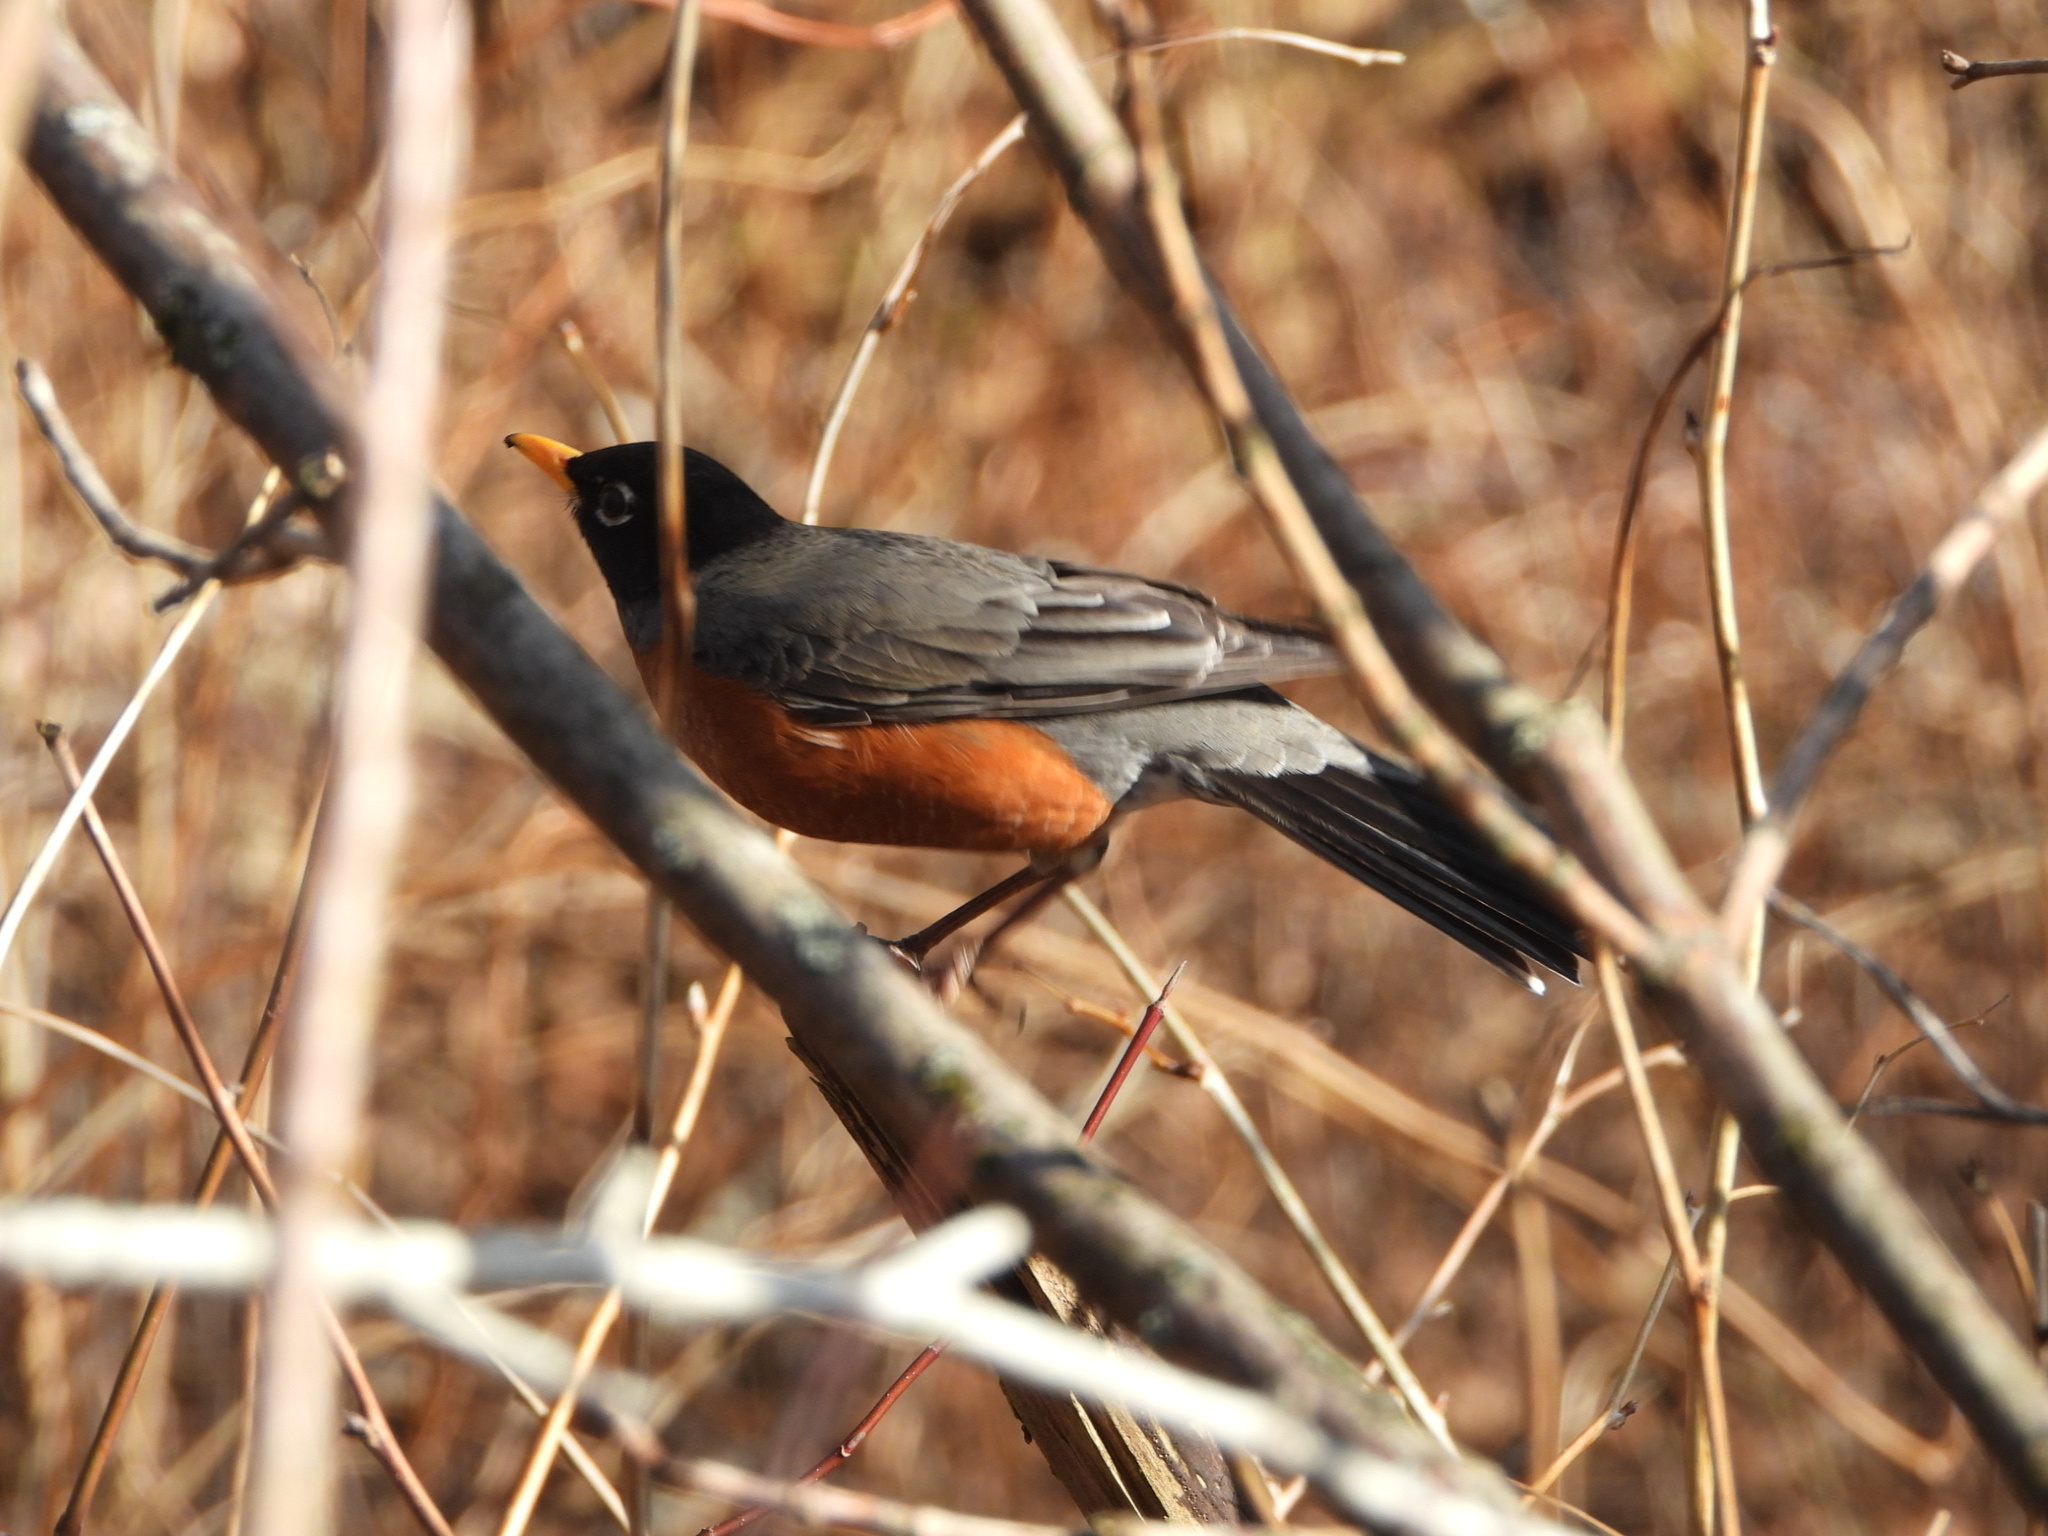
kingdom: Animalia
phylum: Chordata
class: Aves
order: Passeriformes
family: Turdidae
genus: Turdus
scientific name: Turdus migratorius
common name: American robin
